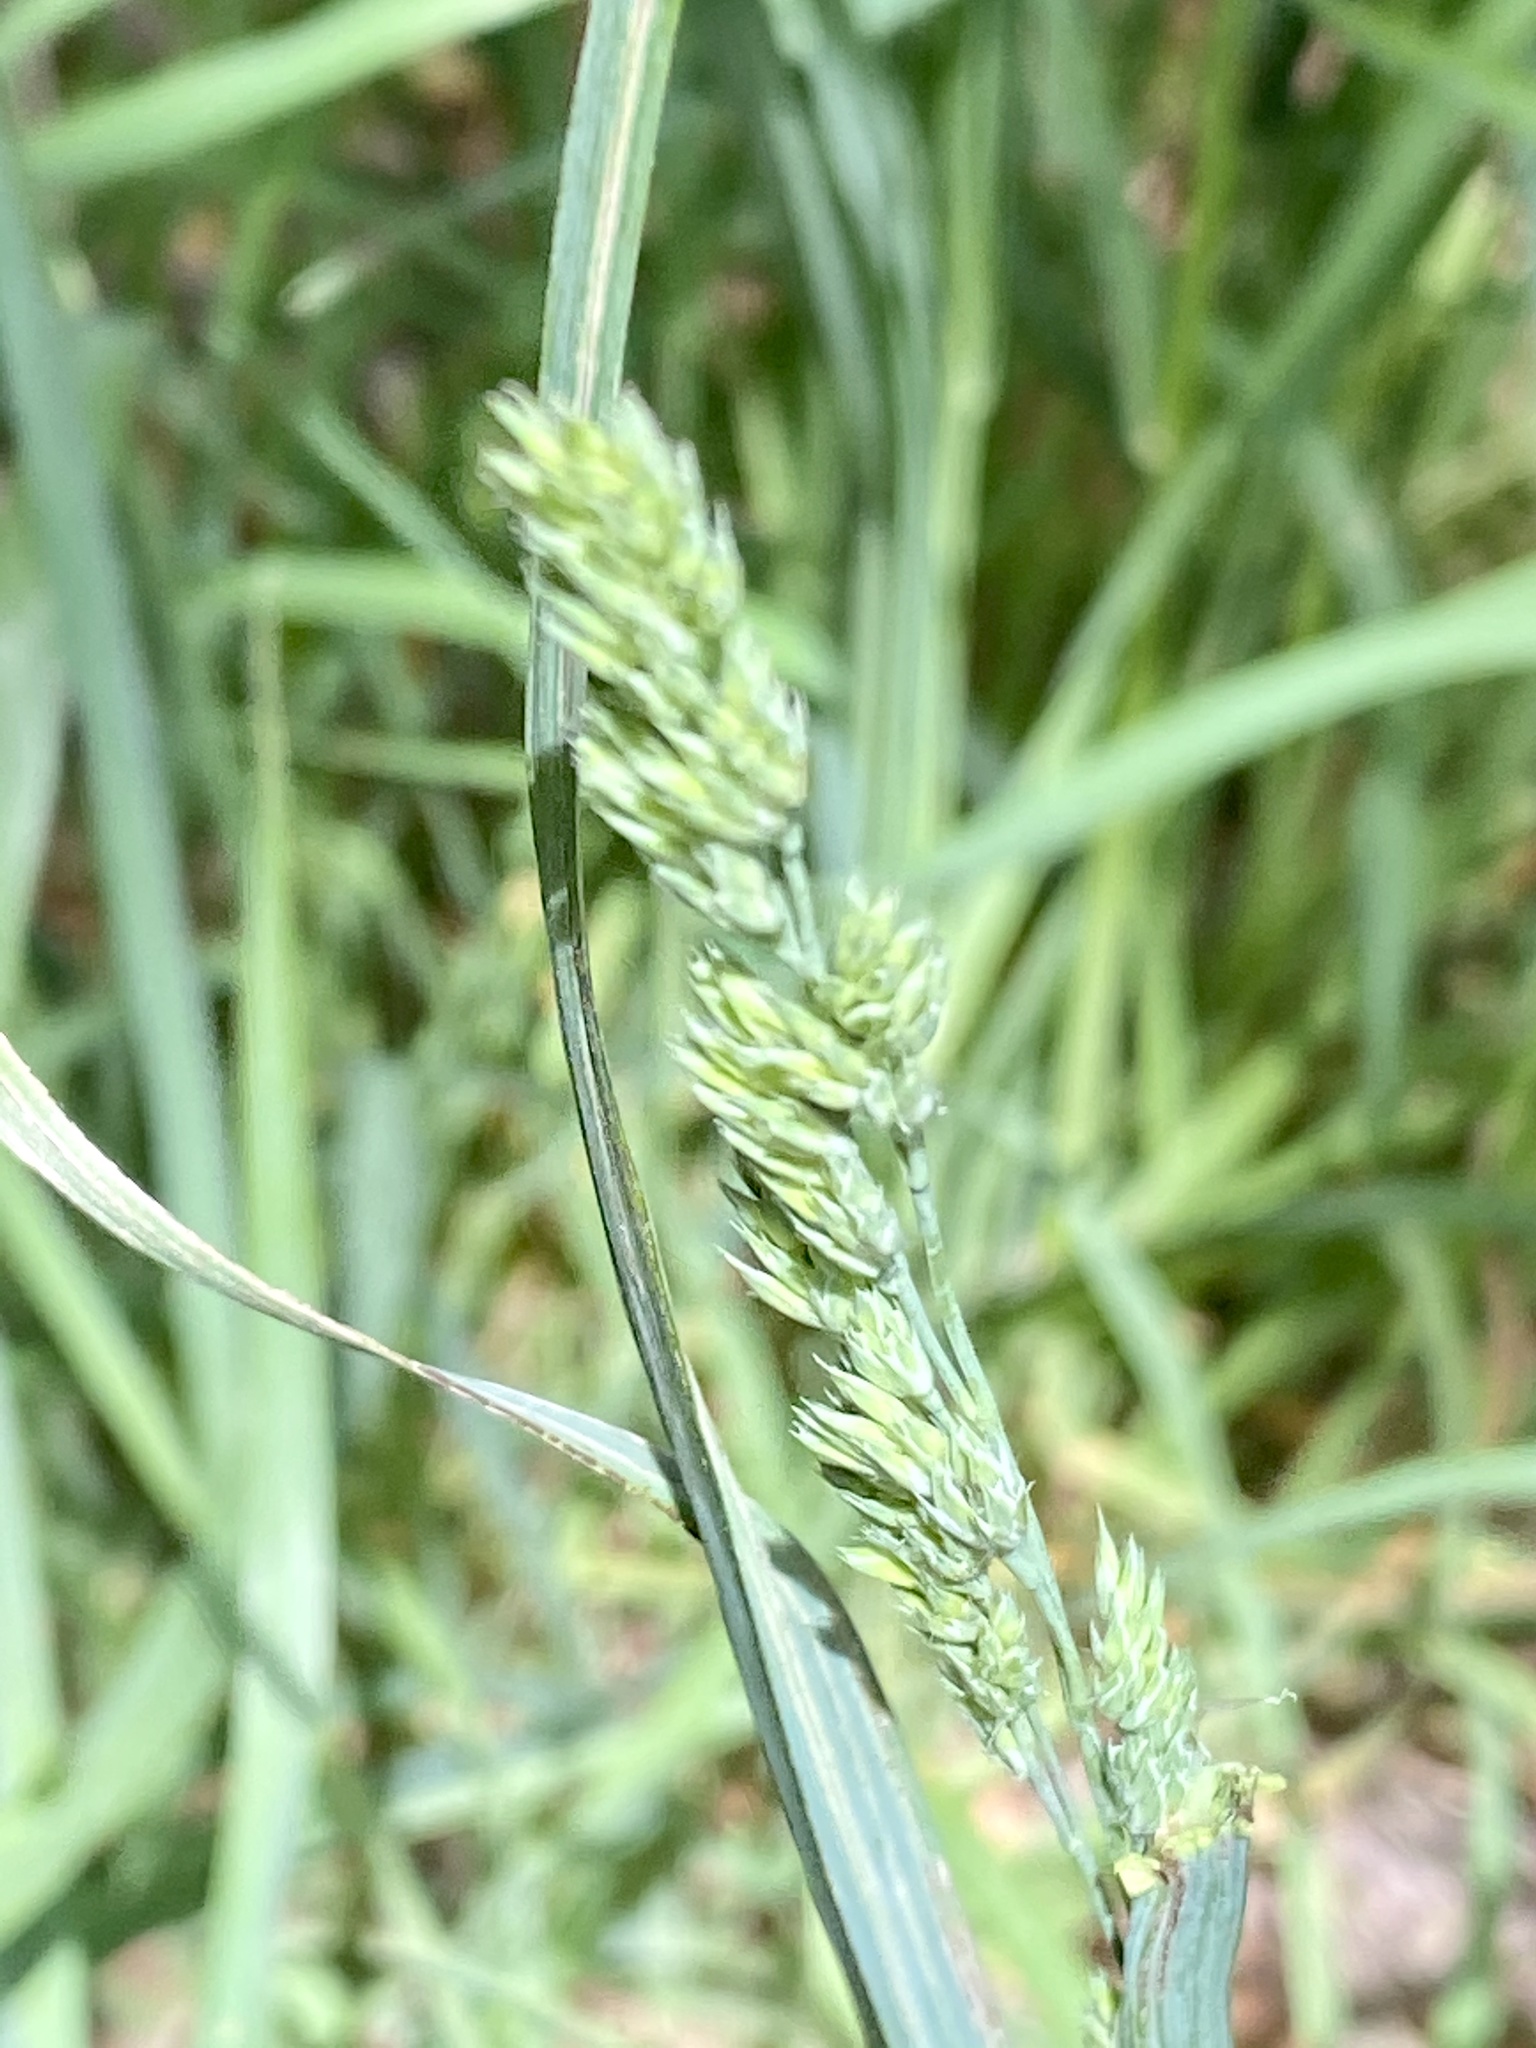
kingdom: Plantae
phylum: Tracheophyta
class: Liliopsida
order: Poales
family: Poaceae
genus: Dactylis
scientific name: Dactylis glomerata
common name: Orchardgrass
